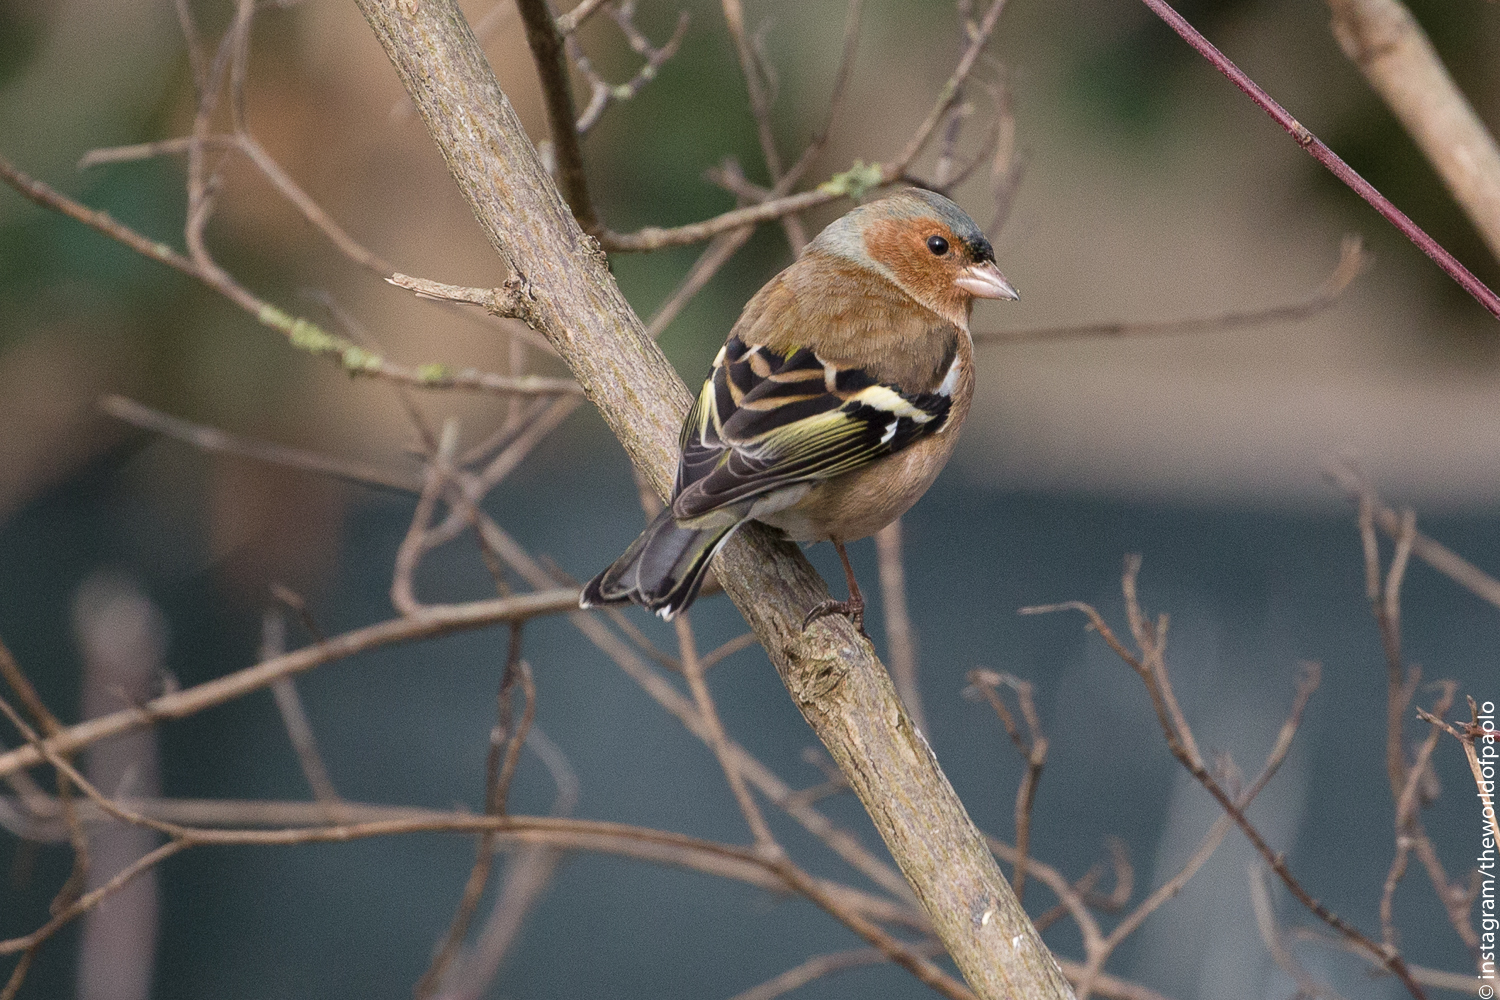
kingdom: Animalia
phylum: Chordata
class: Aves
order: Passeriformes
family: Fringillidae
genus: Fringilla
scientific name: Fringilla coelebs
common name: Common chaffinch
